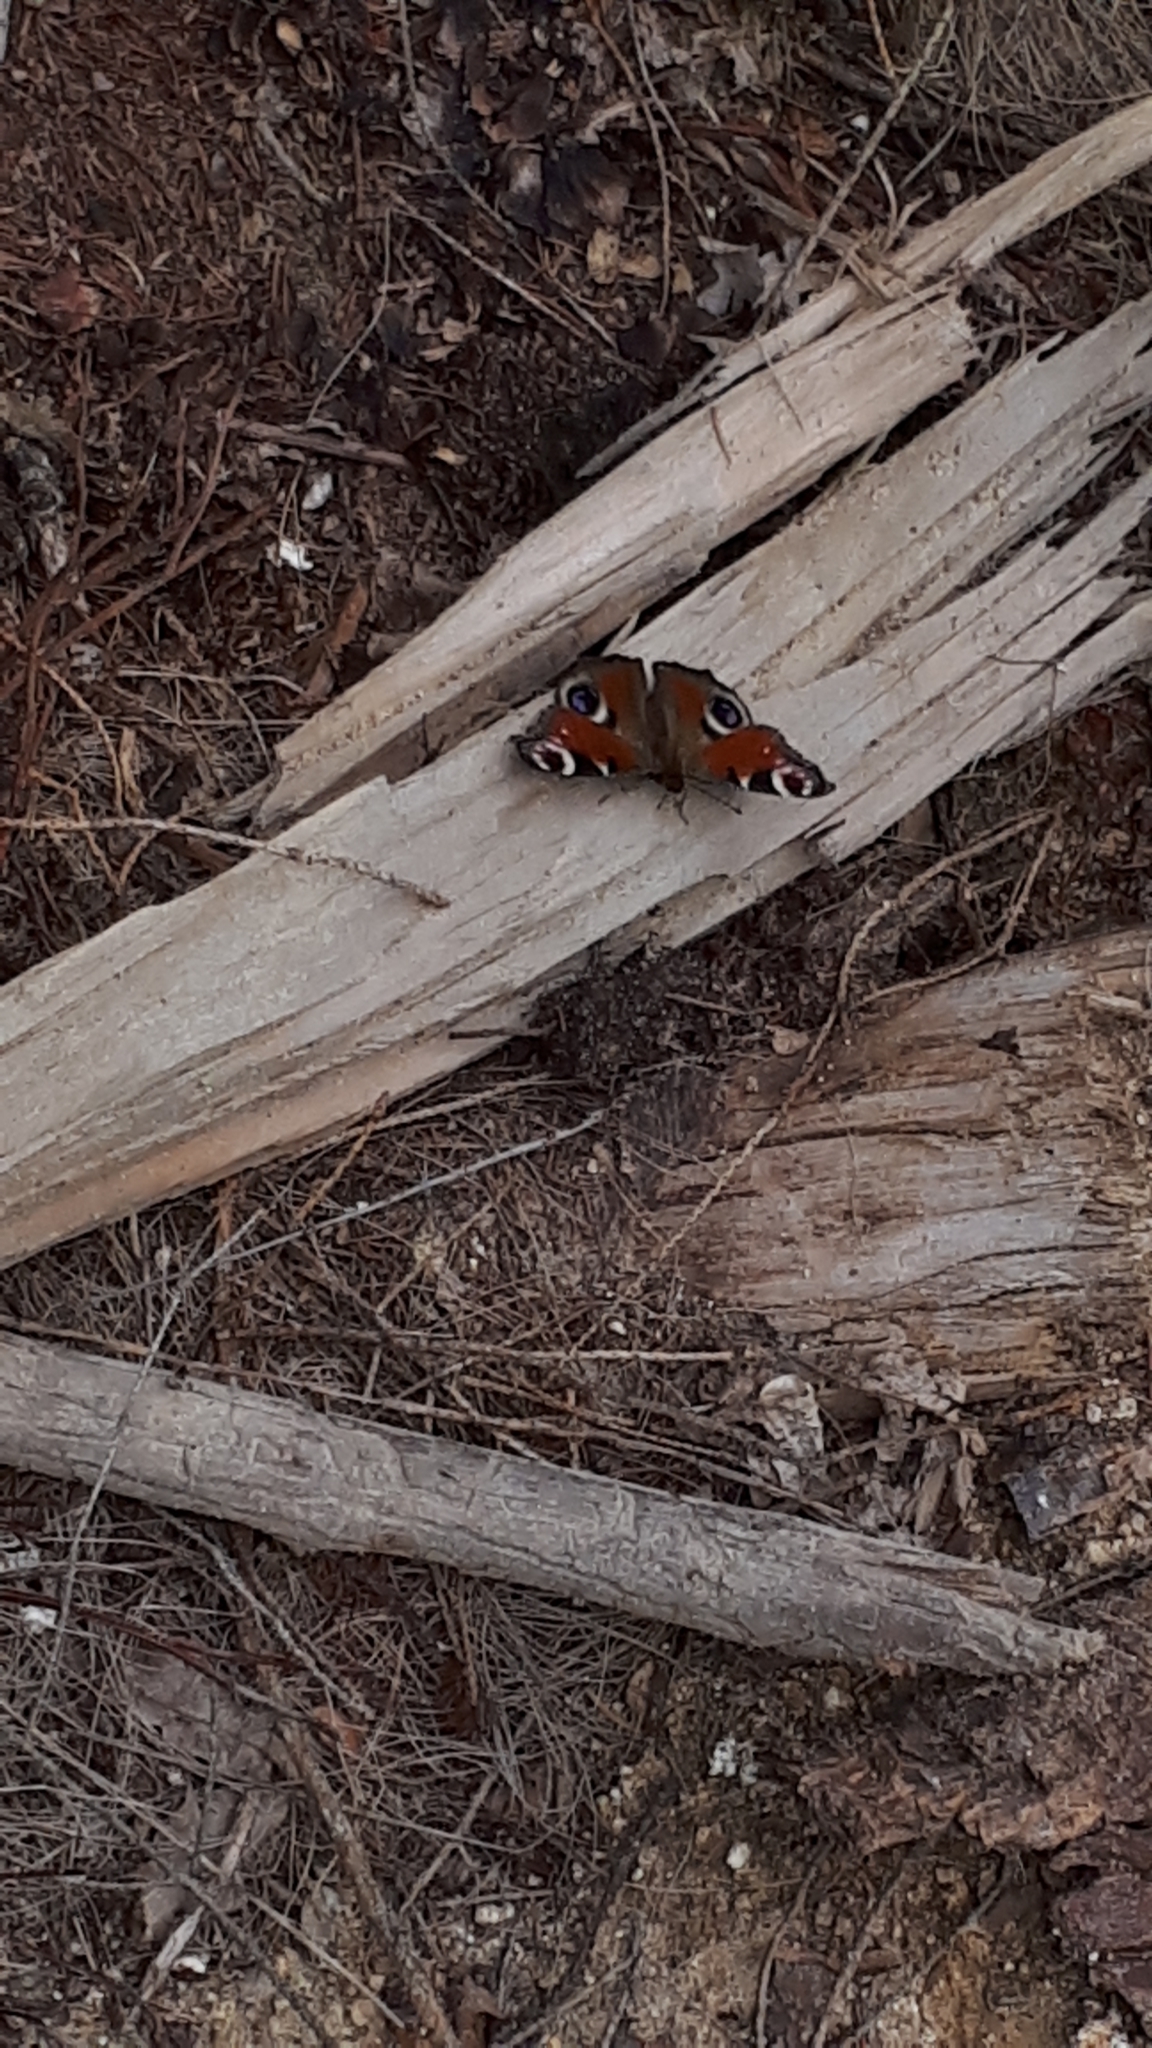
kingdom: Animalia
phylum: Arthropoda
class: Insecta
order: Lepidoptera
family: Nymphalidae
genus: Aglais
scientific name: Aglais io
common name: Peacock
